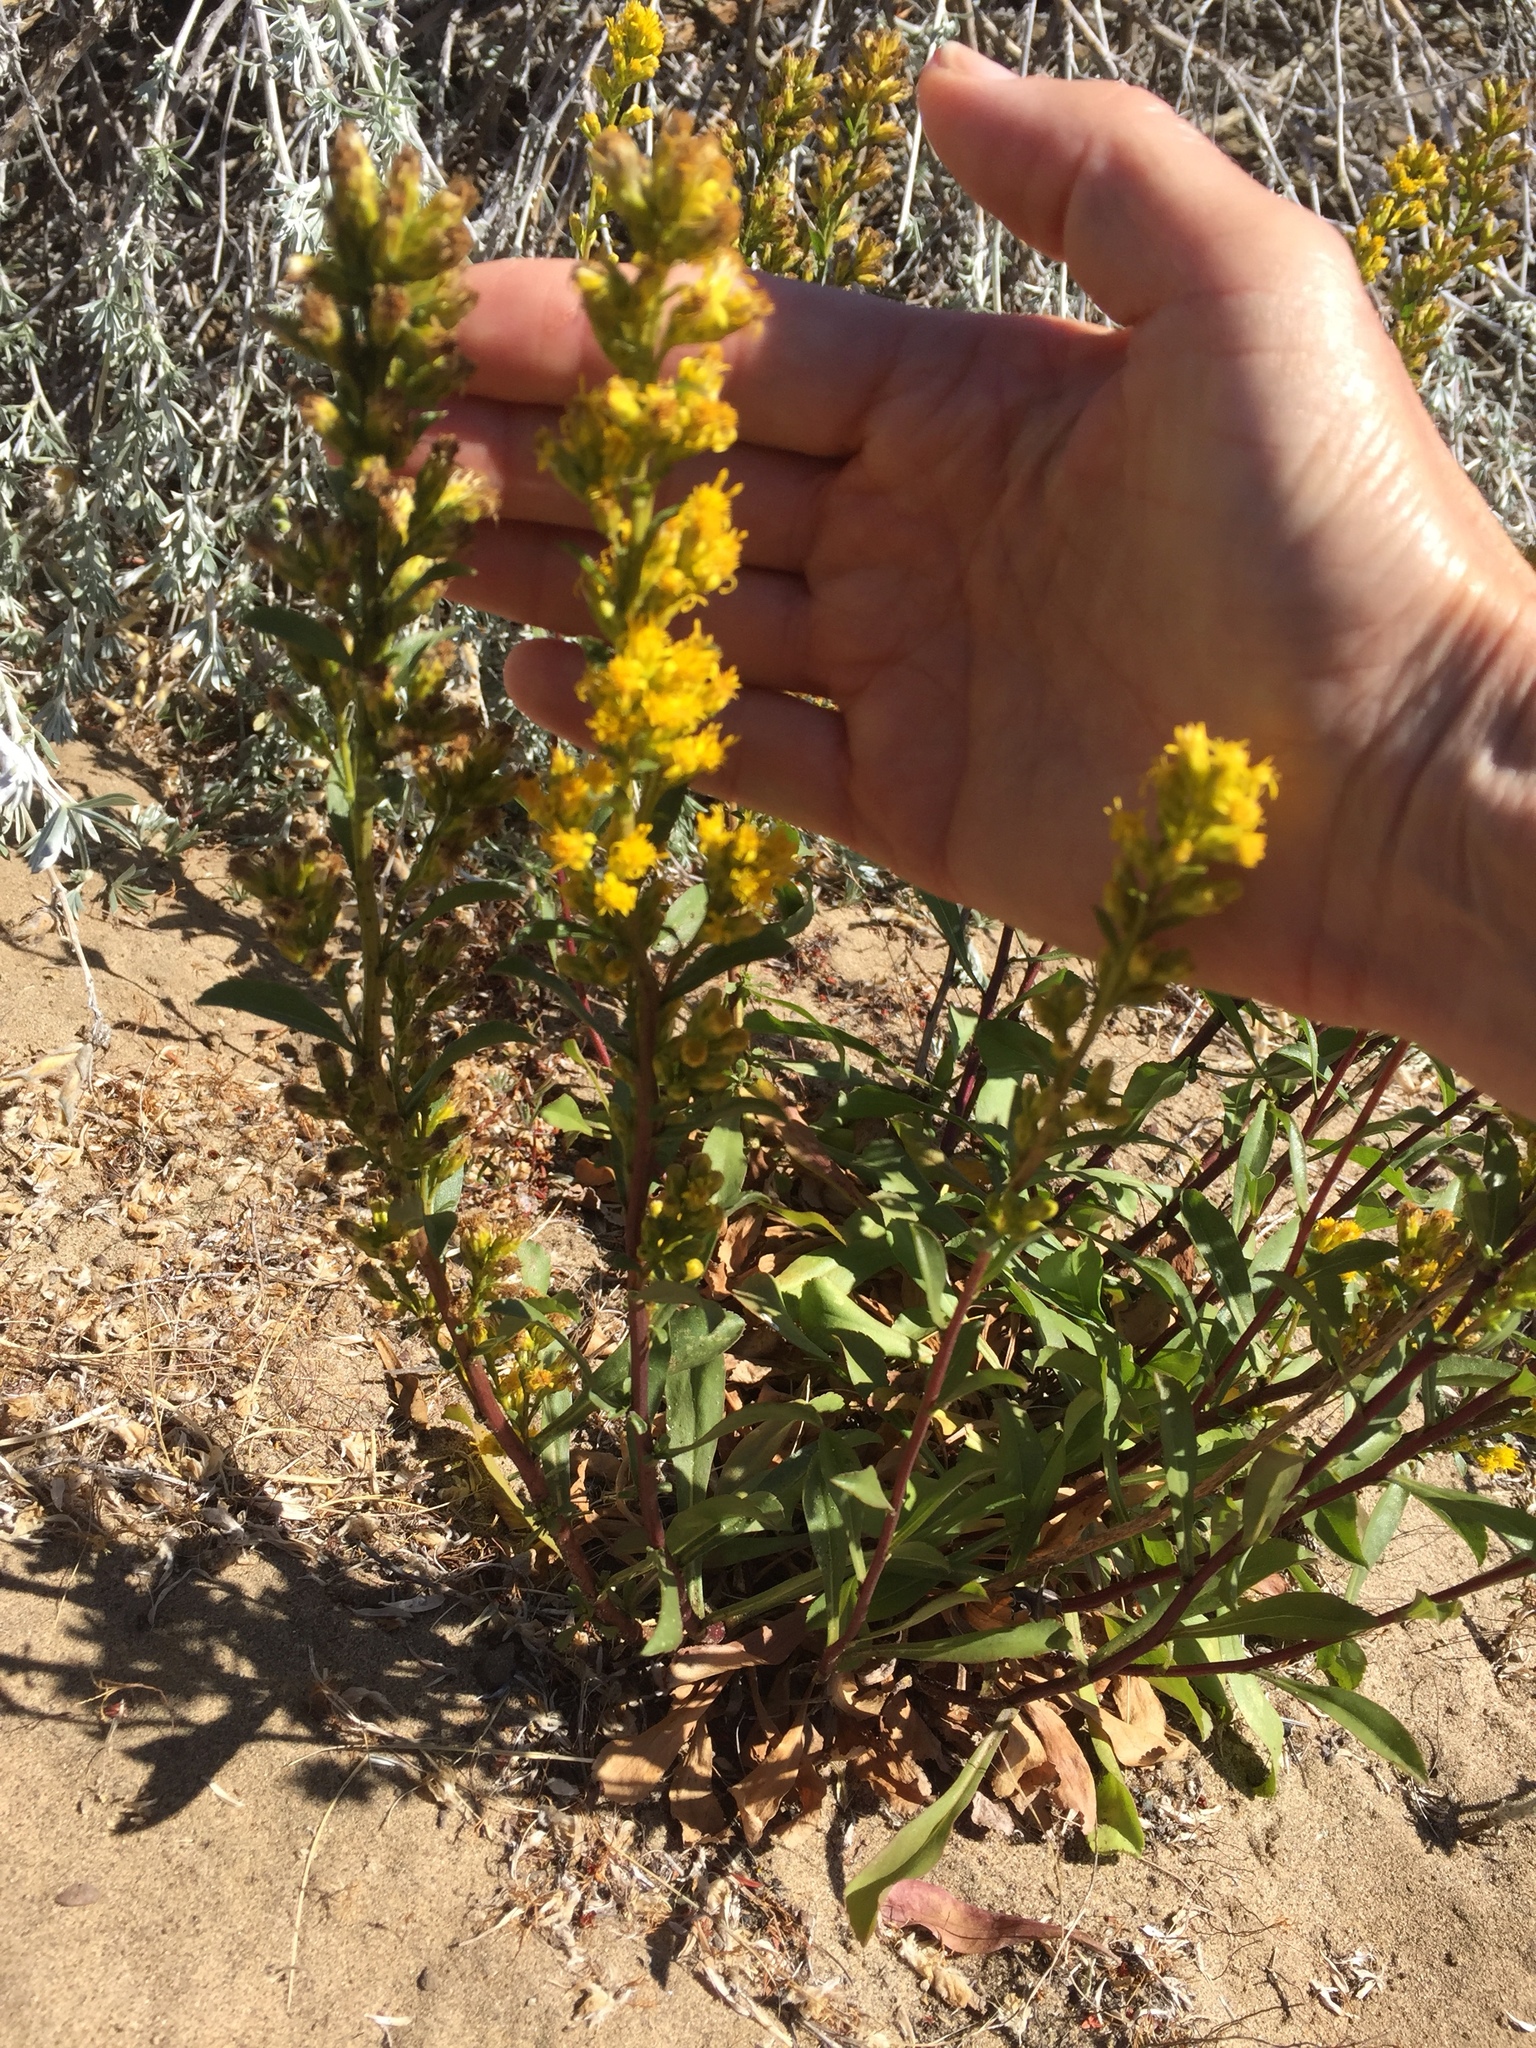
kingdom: Plantae
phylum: Tracheophyta
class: Magnoliopsida
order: Asterales
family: Asteraceae
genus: Solidago
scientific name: Solidago spathulata
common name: Coast goldenrod
